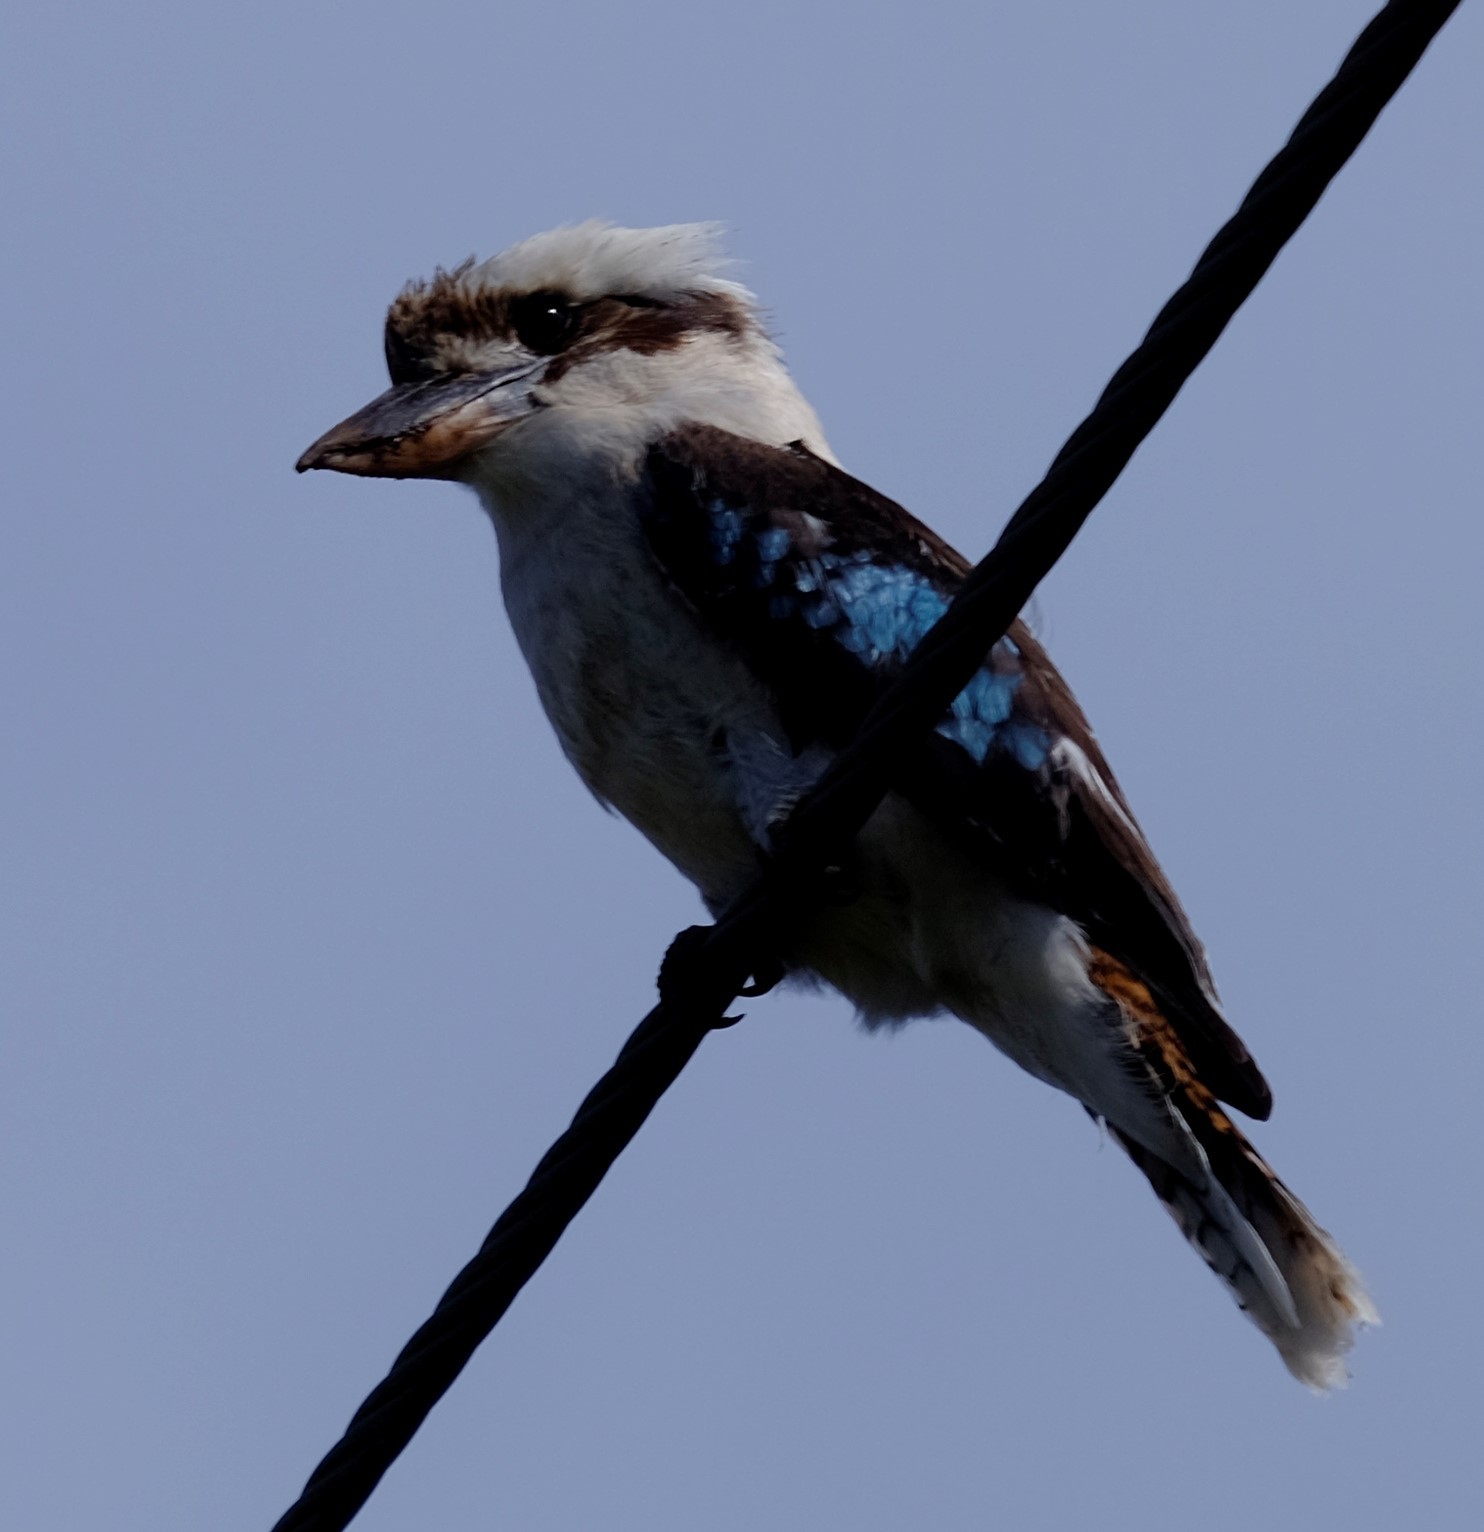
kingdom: Animalia
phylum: Chordata
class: Aves
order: Coraciiformes
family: Alcedinidae
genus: Dacelo
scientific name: Dacelo novaeguineae
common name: Laughing kookaburra
